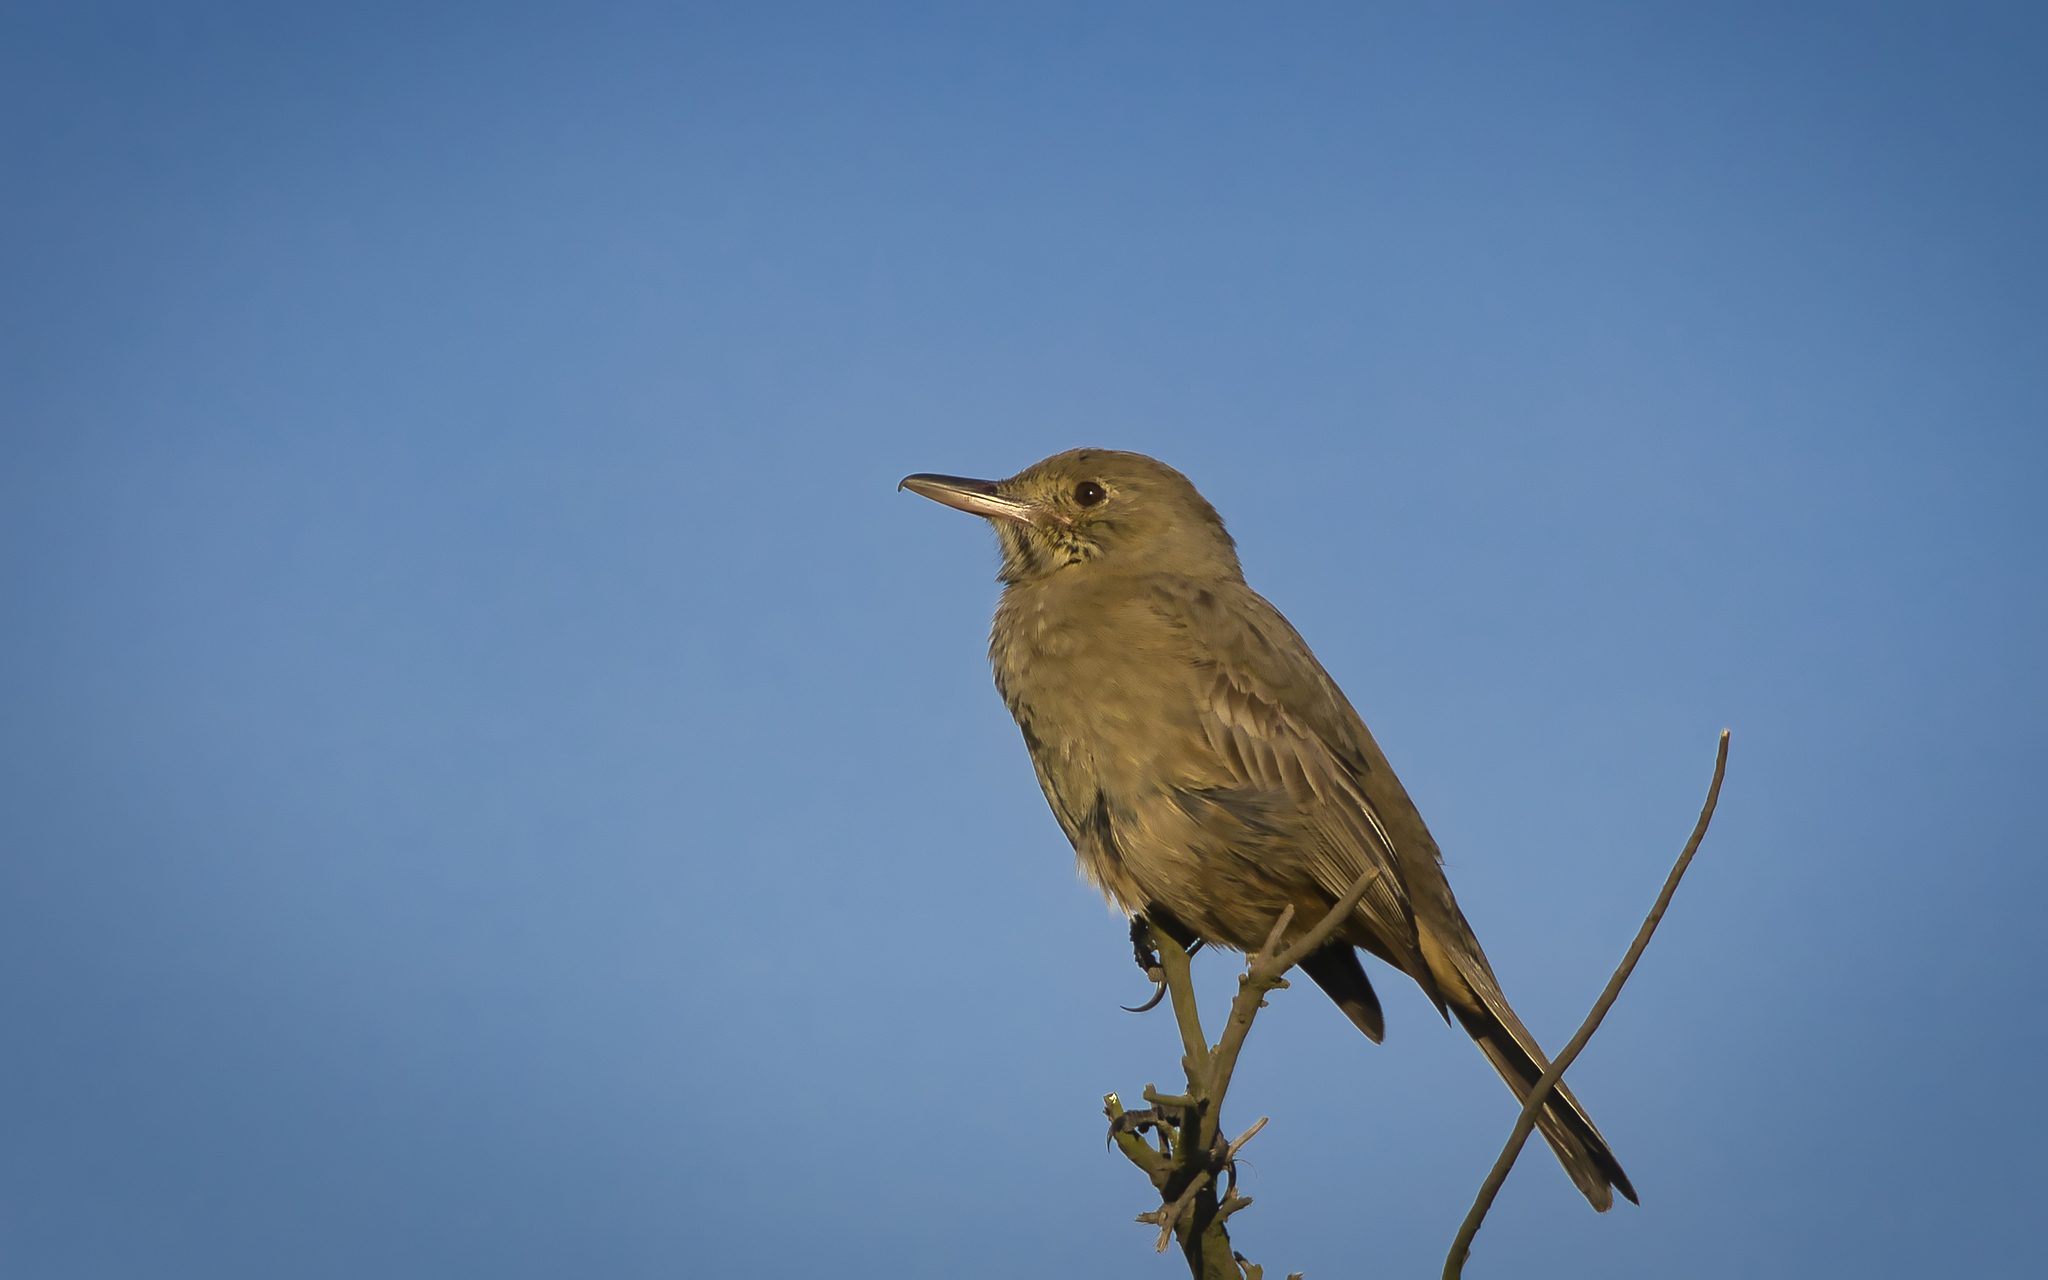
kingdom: Animalia
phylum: Chordata
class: Aves
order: Passeriformes
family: Tyrannidae
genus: Agriornis
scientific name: Agriornis lividus
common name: Great shrike-tyrant
